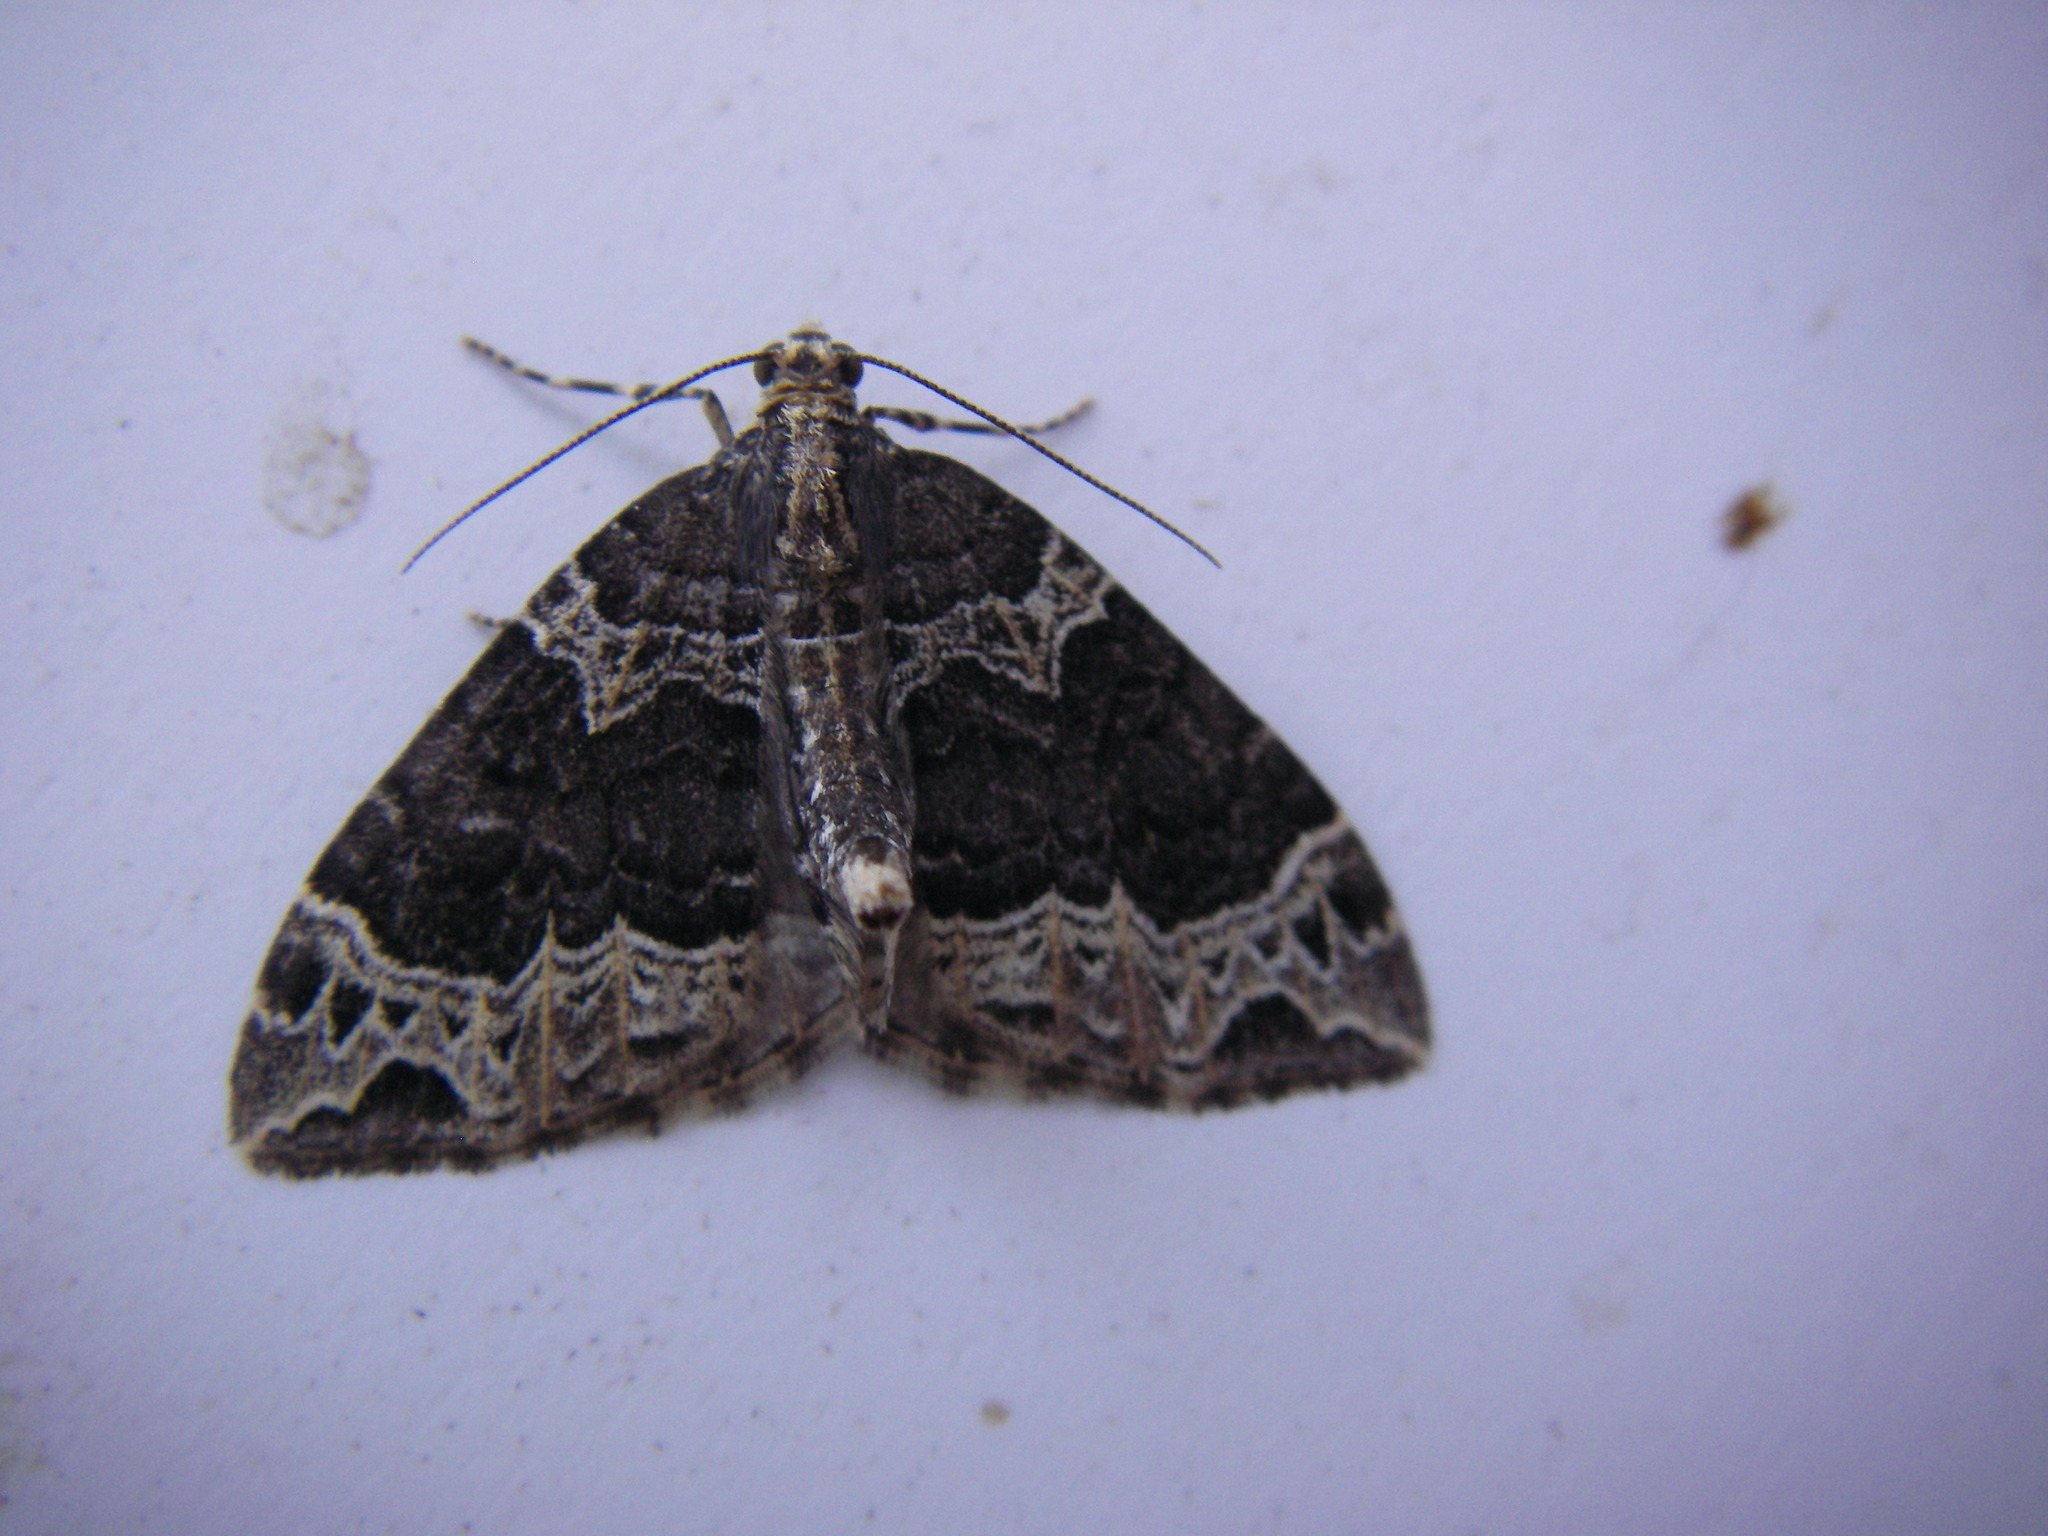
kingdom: Animalia
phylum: Arthropoda
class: Insecta
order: Lepidoptera
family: Geometridae
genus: Ecliptopera
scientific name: Ecliptopera silaceata
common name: Small phoenix
